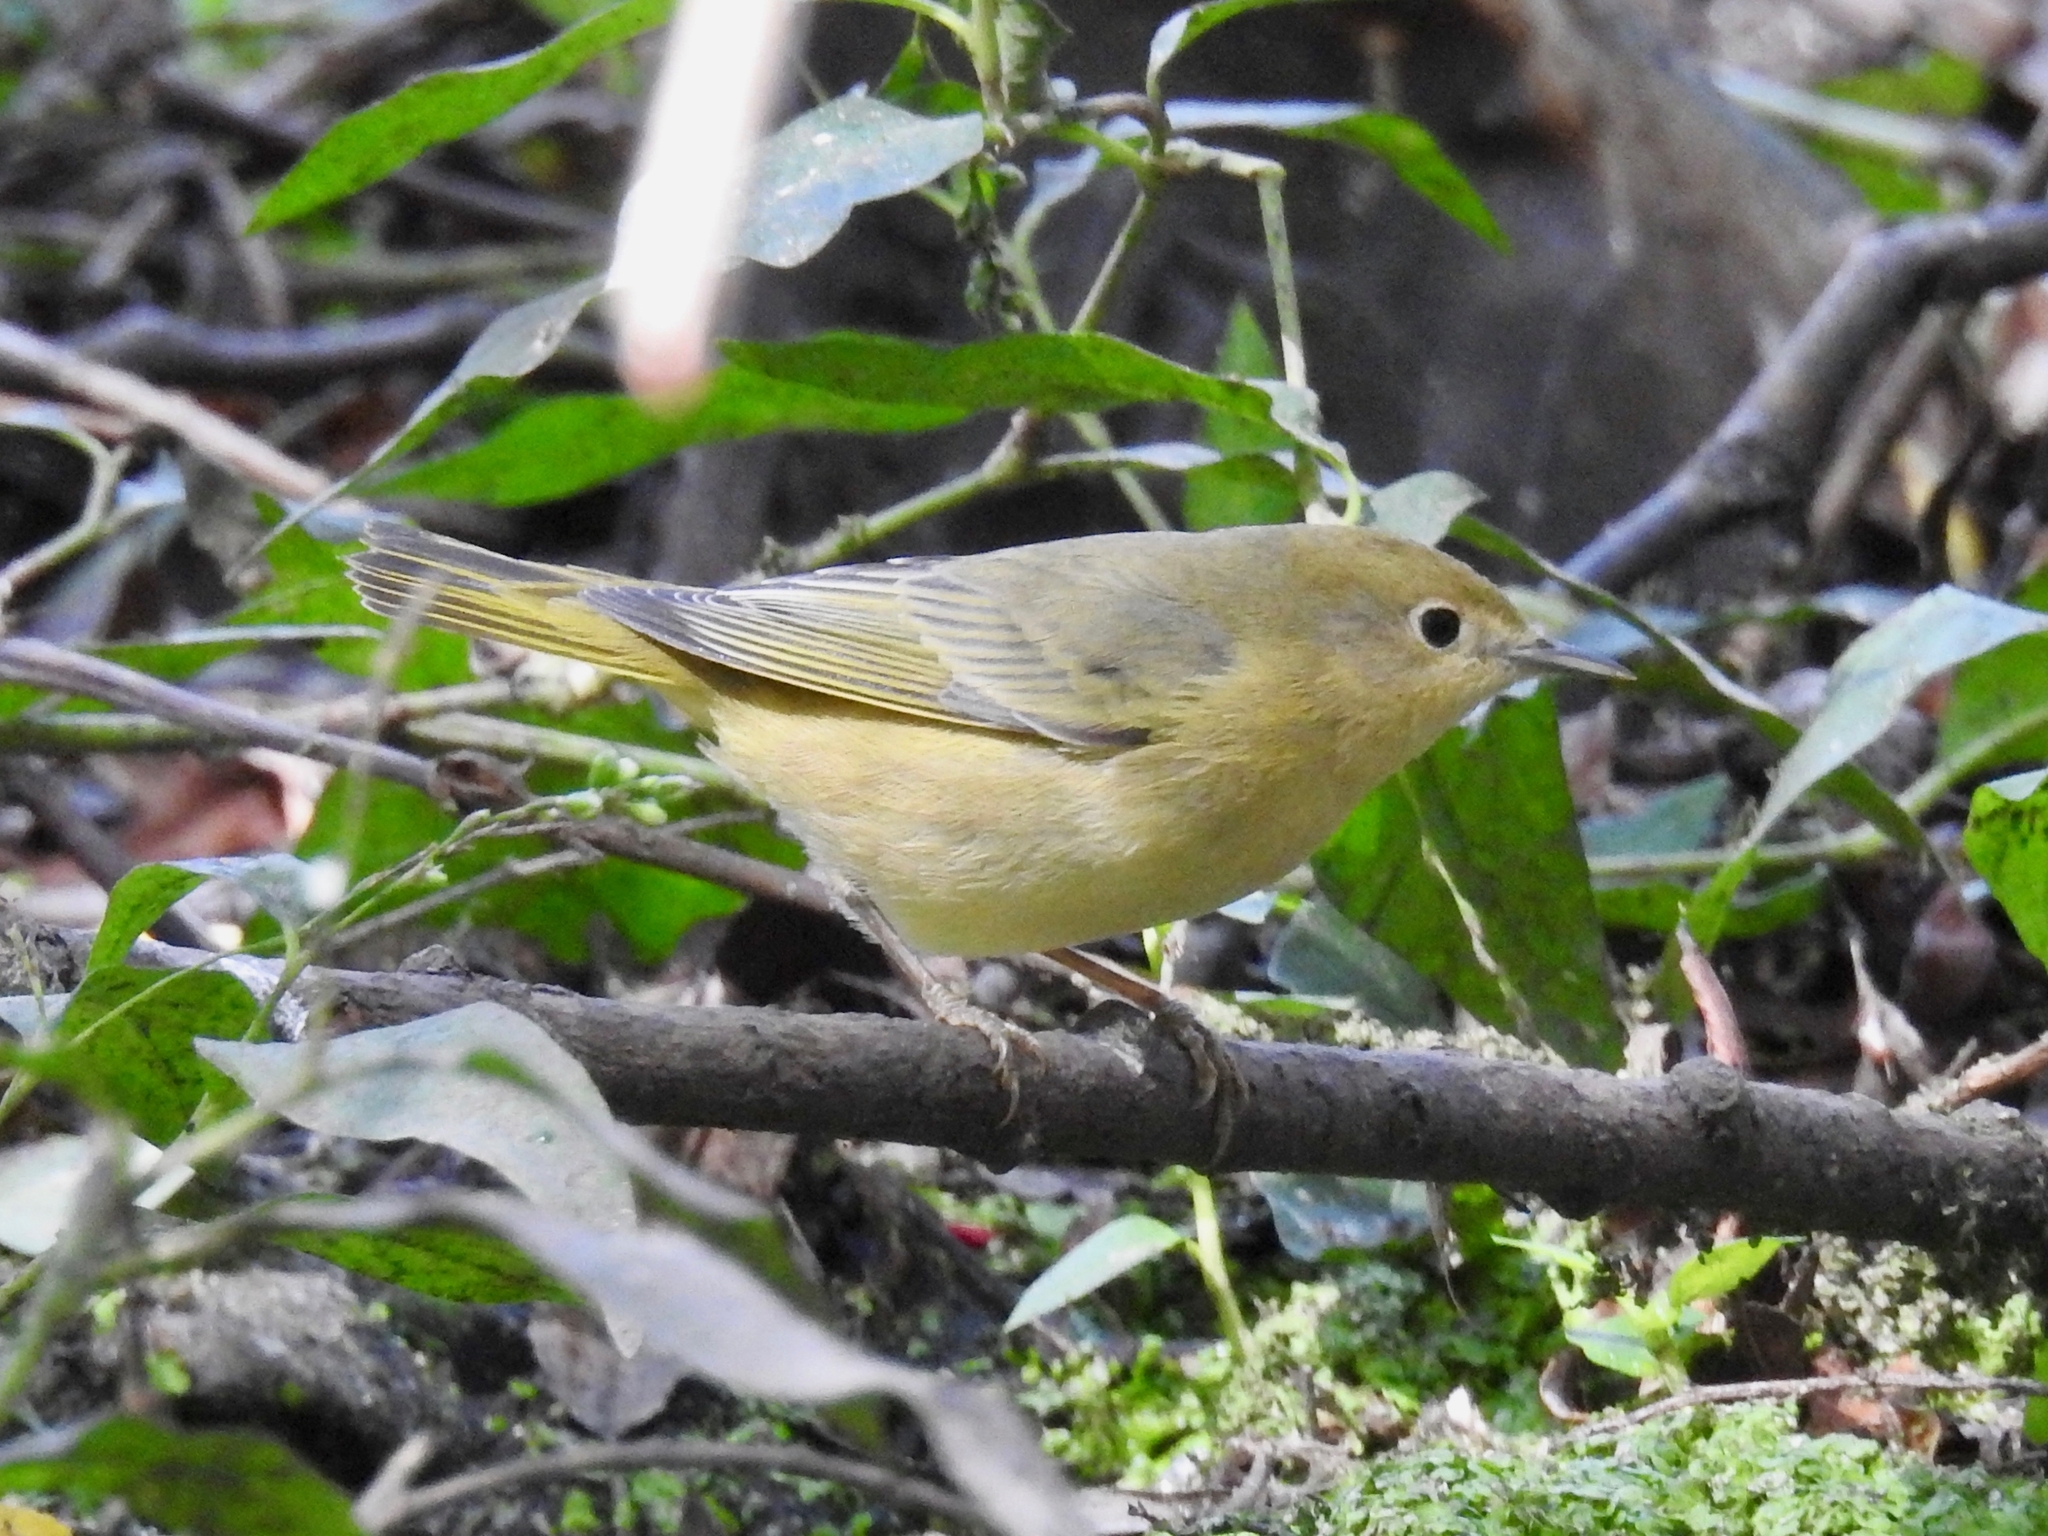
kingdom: Animalia
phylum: Chordata
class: Aves
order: Passeriformes
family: Parulidae
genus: Setophaga
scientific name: Setophaga petechia
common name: Yellow warbler
